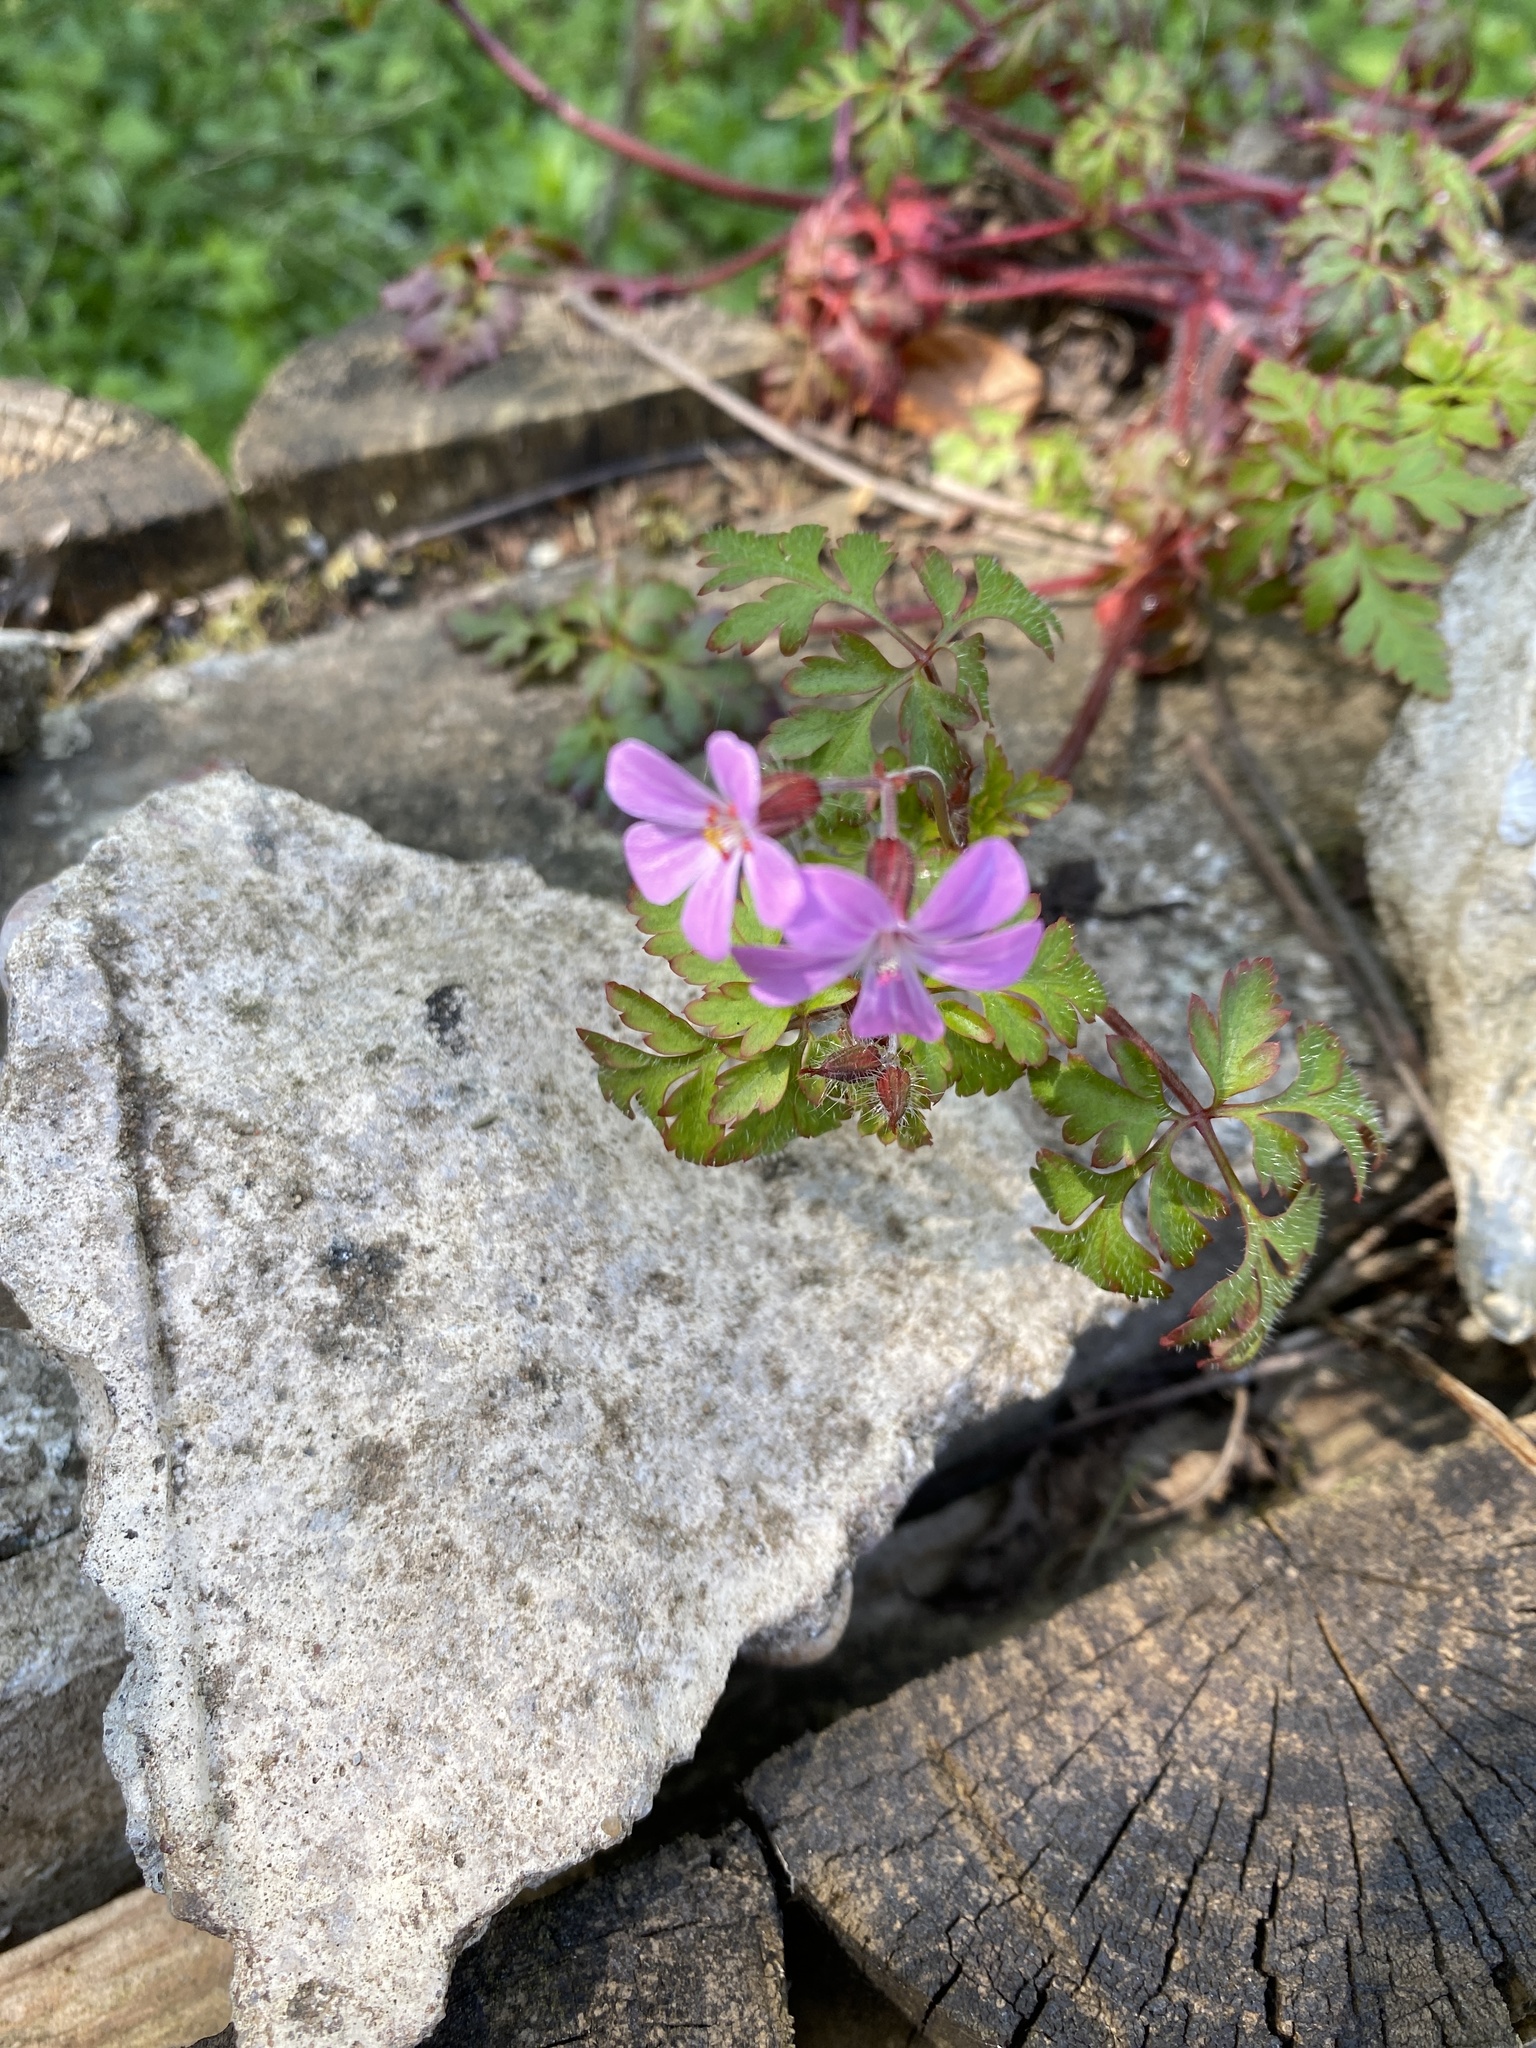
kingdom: Plantae
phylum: Tracheophyta
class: Magnoliopsida
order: Geraniales
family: Geraniaceae
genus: Geranium
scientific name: Geranium robertianum
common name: Herb-robert
